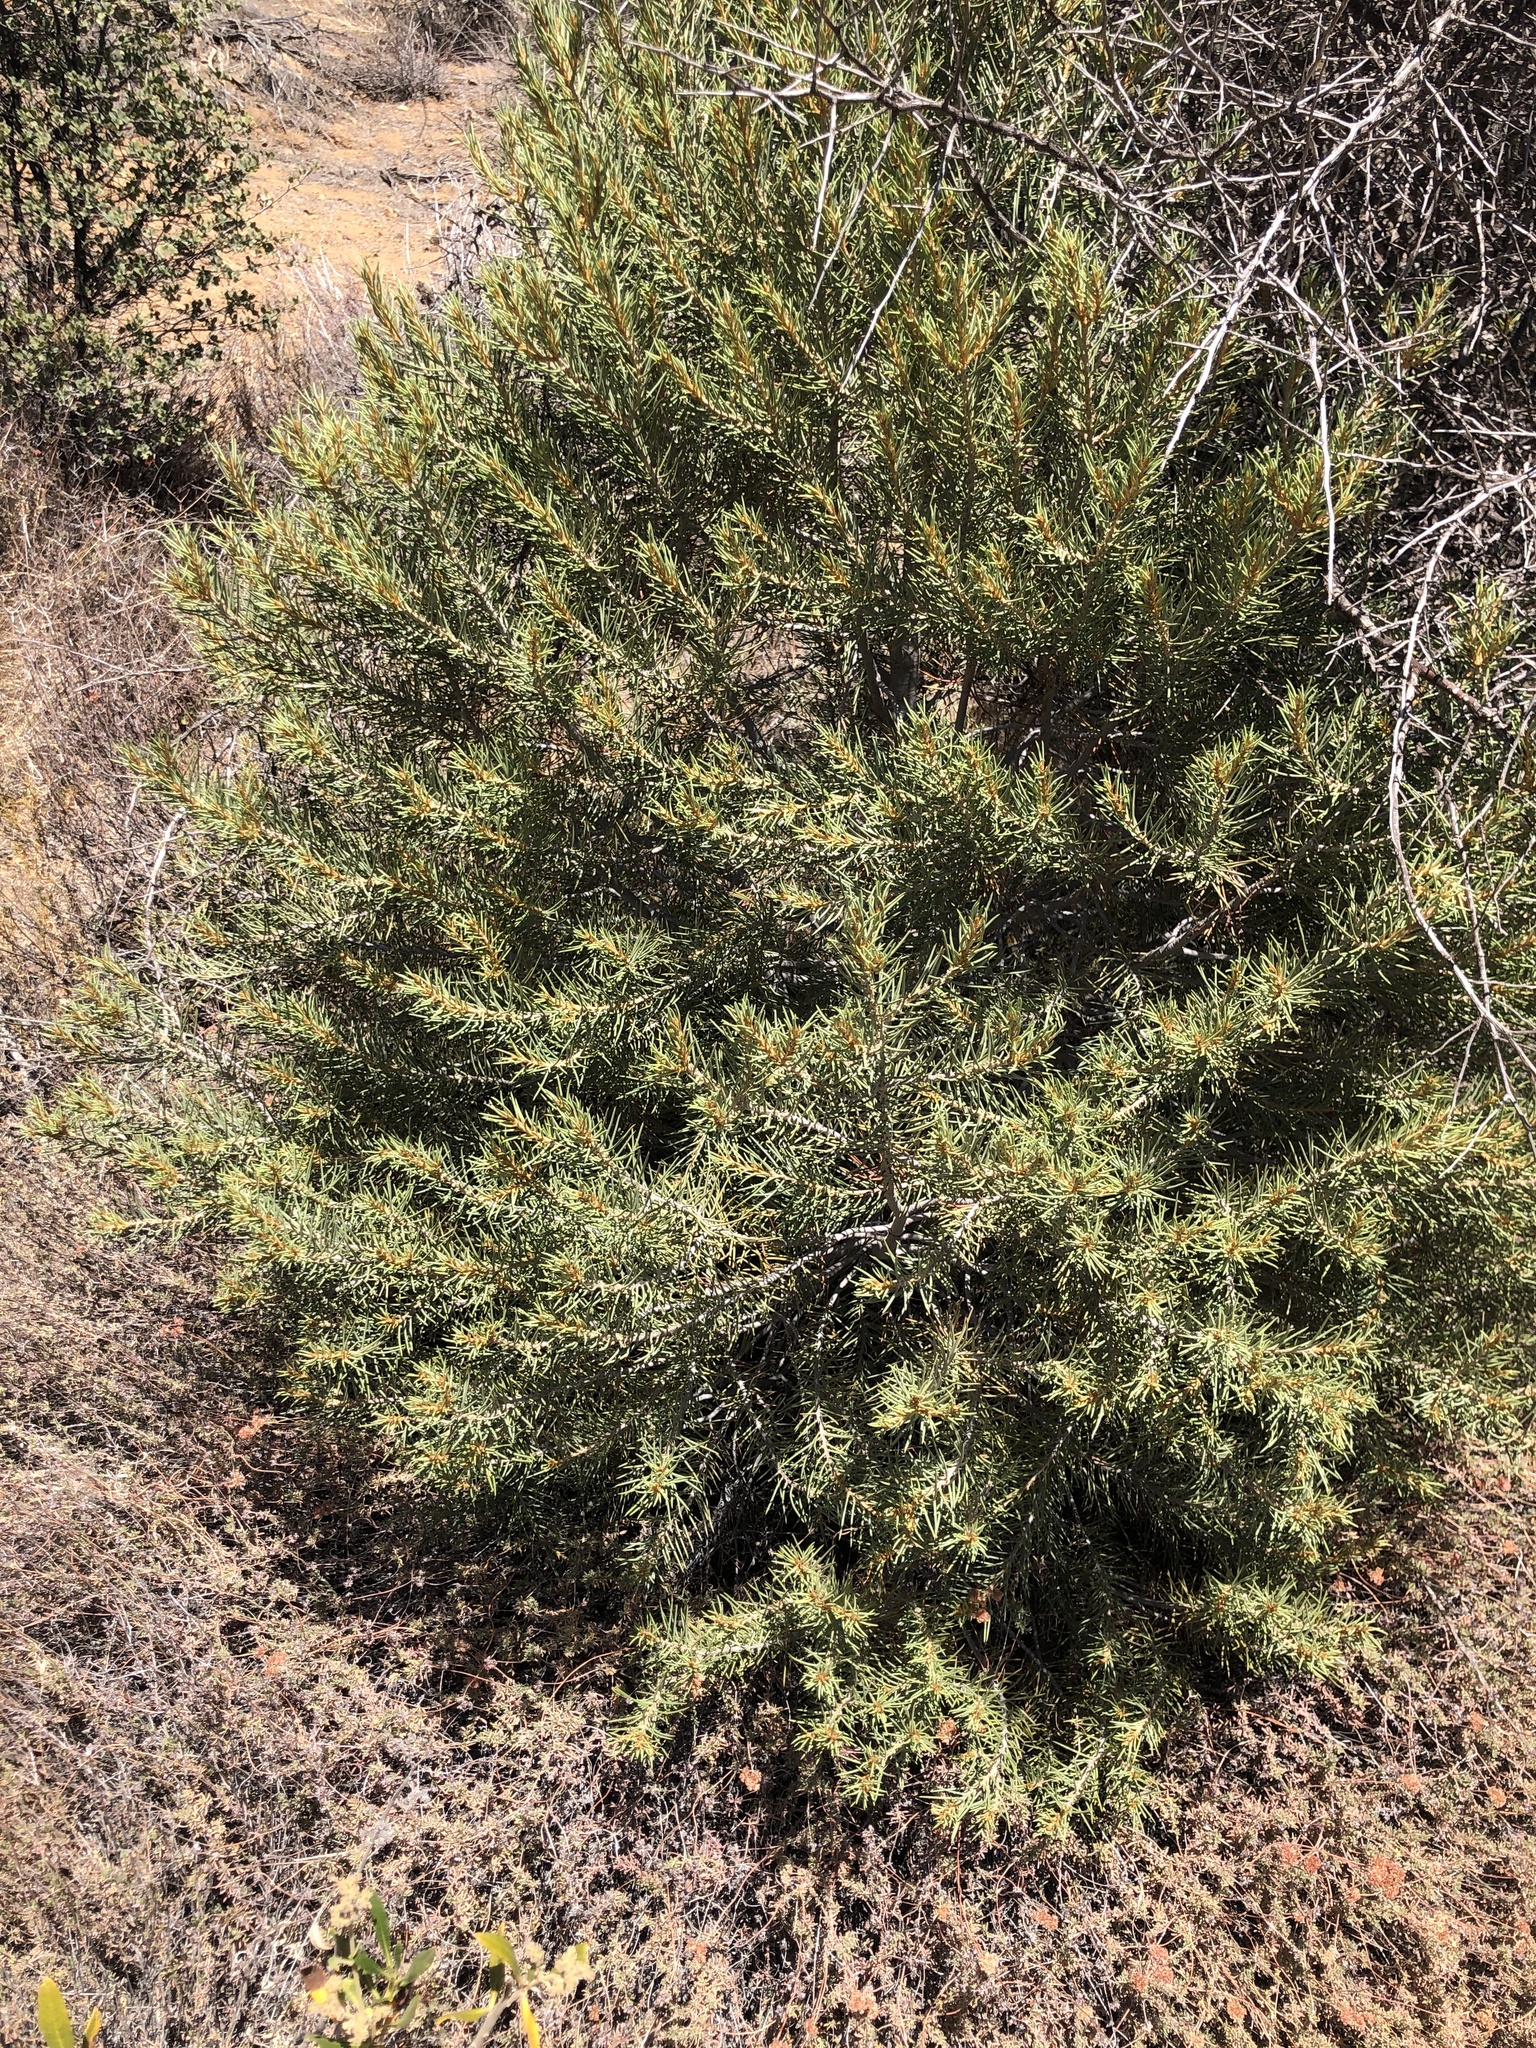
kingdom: Plantae
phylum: Tracheophyta
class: Pinopsida
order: Pinales
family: Pinaceae
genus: Pinus
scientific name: Pinus monophylla
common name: One-leaved nut pine
